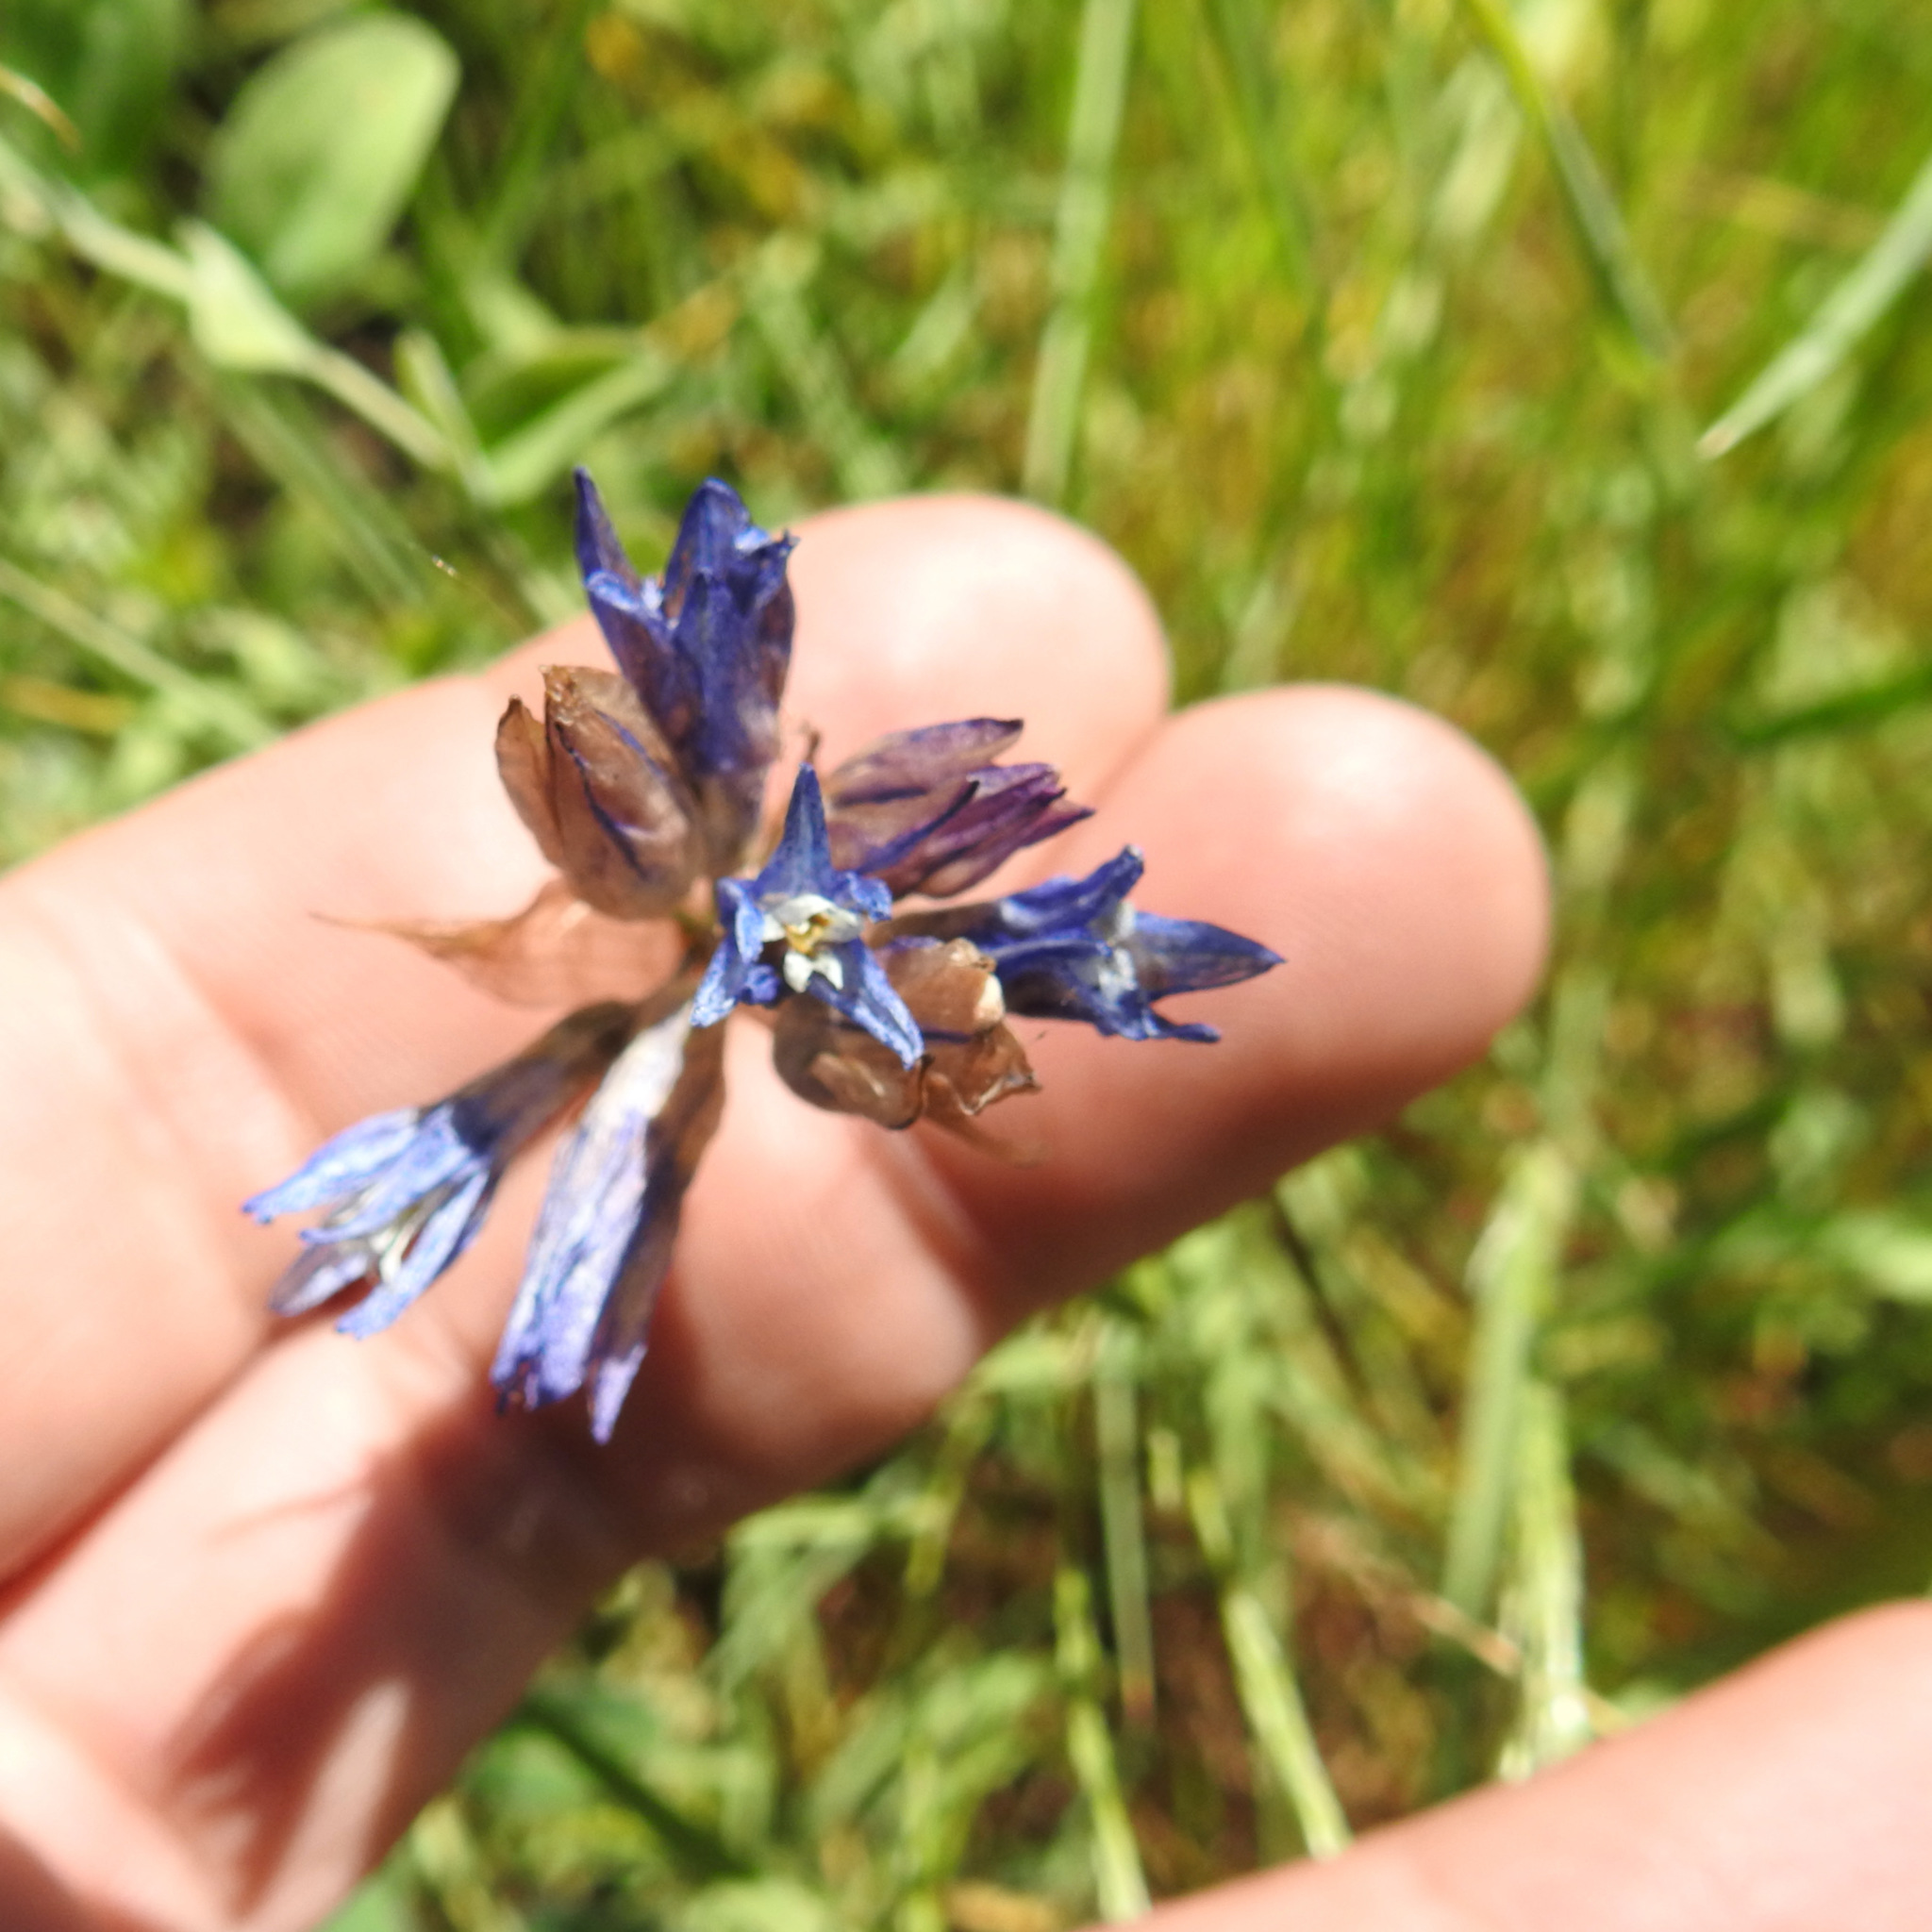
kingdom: Plantae
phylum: Tracheophyta
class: Liliopsida
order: Asparagales
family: Asparagaceae
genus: Dipterostemon
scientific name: Dipterostemon capitatus
